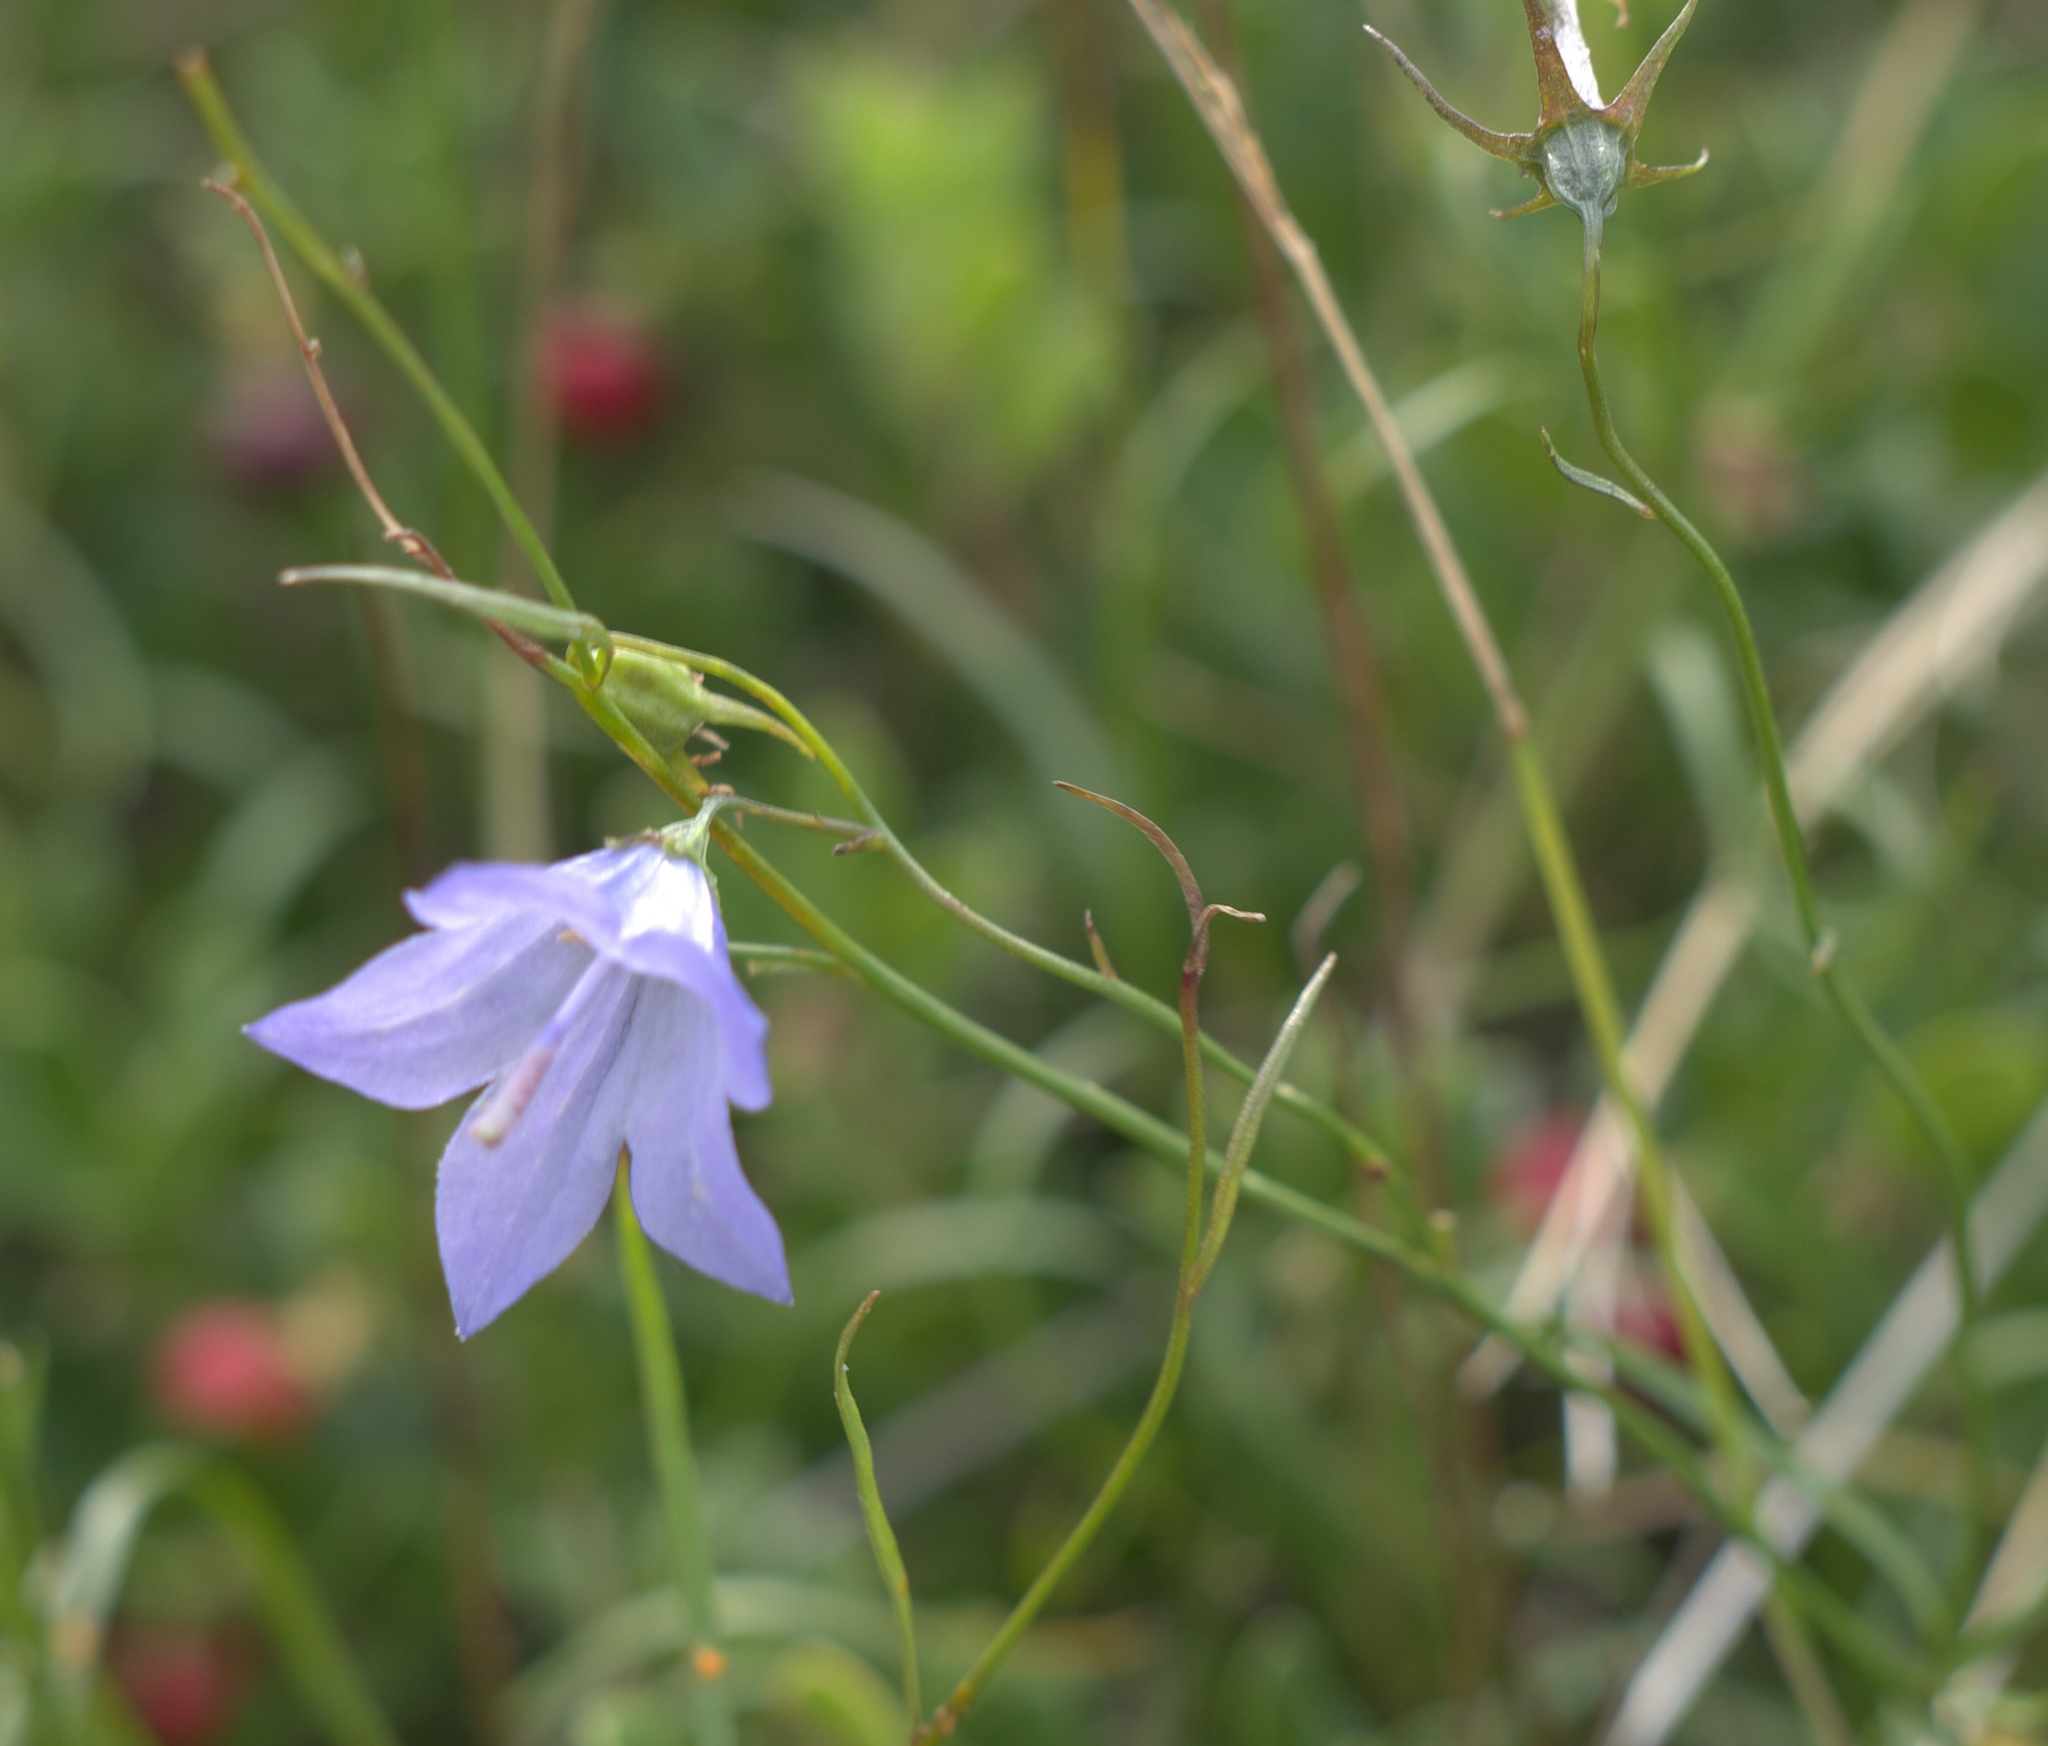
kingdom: Plantae
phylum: Tracheophyta
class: Magnoliopsida
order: Asterales
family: Campanulaceae
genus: Campanula
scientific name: Campanula intercedens
